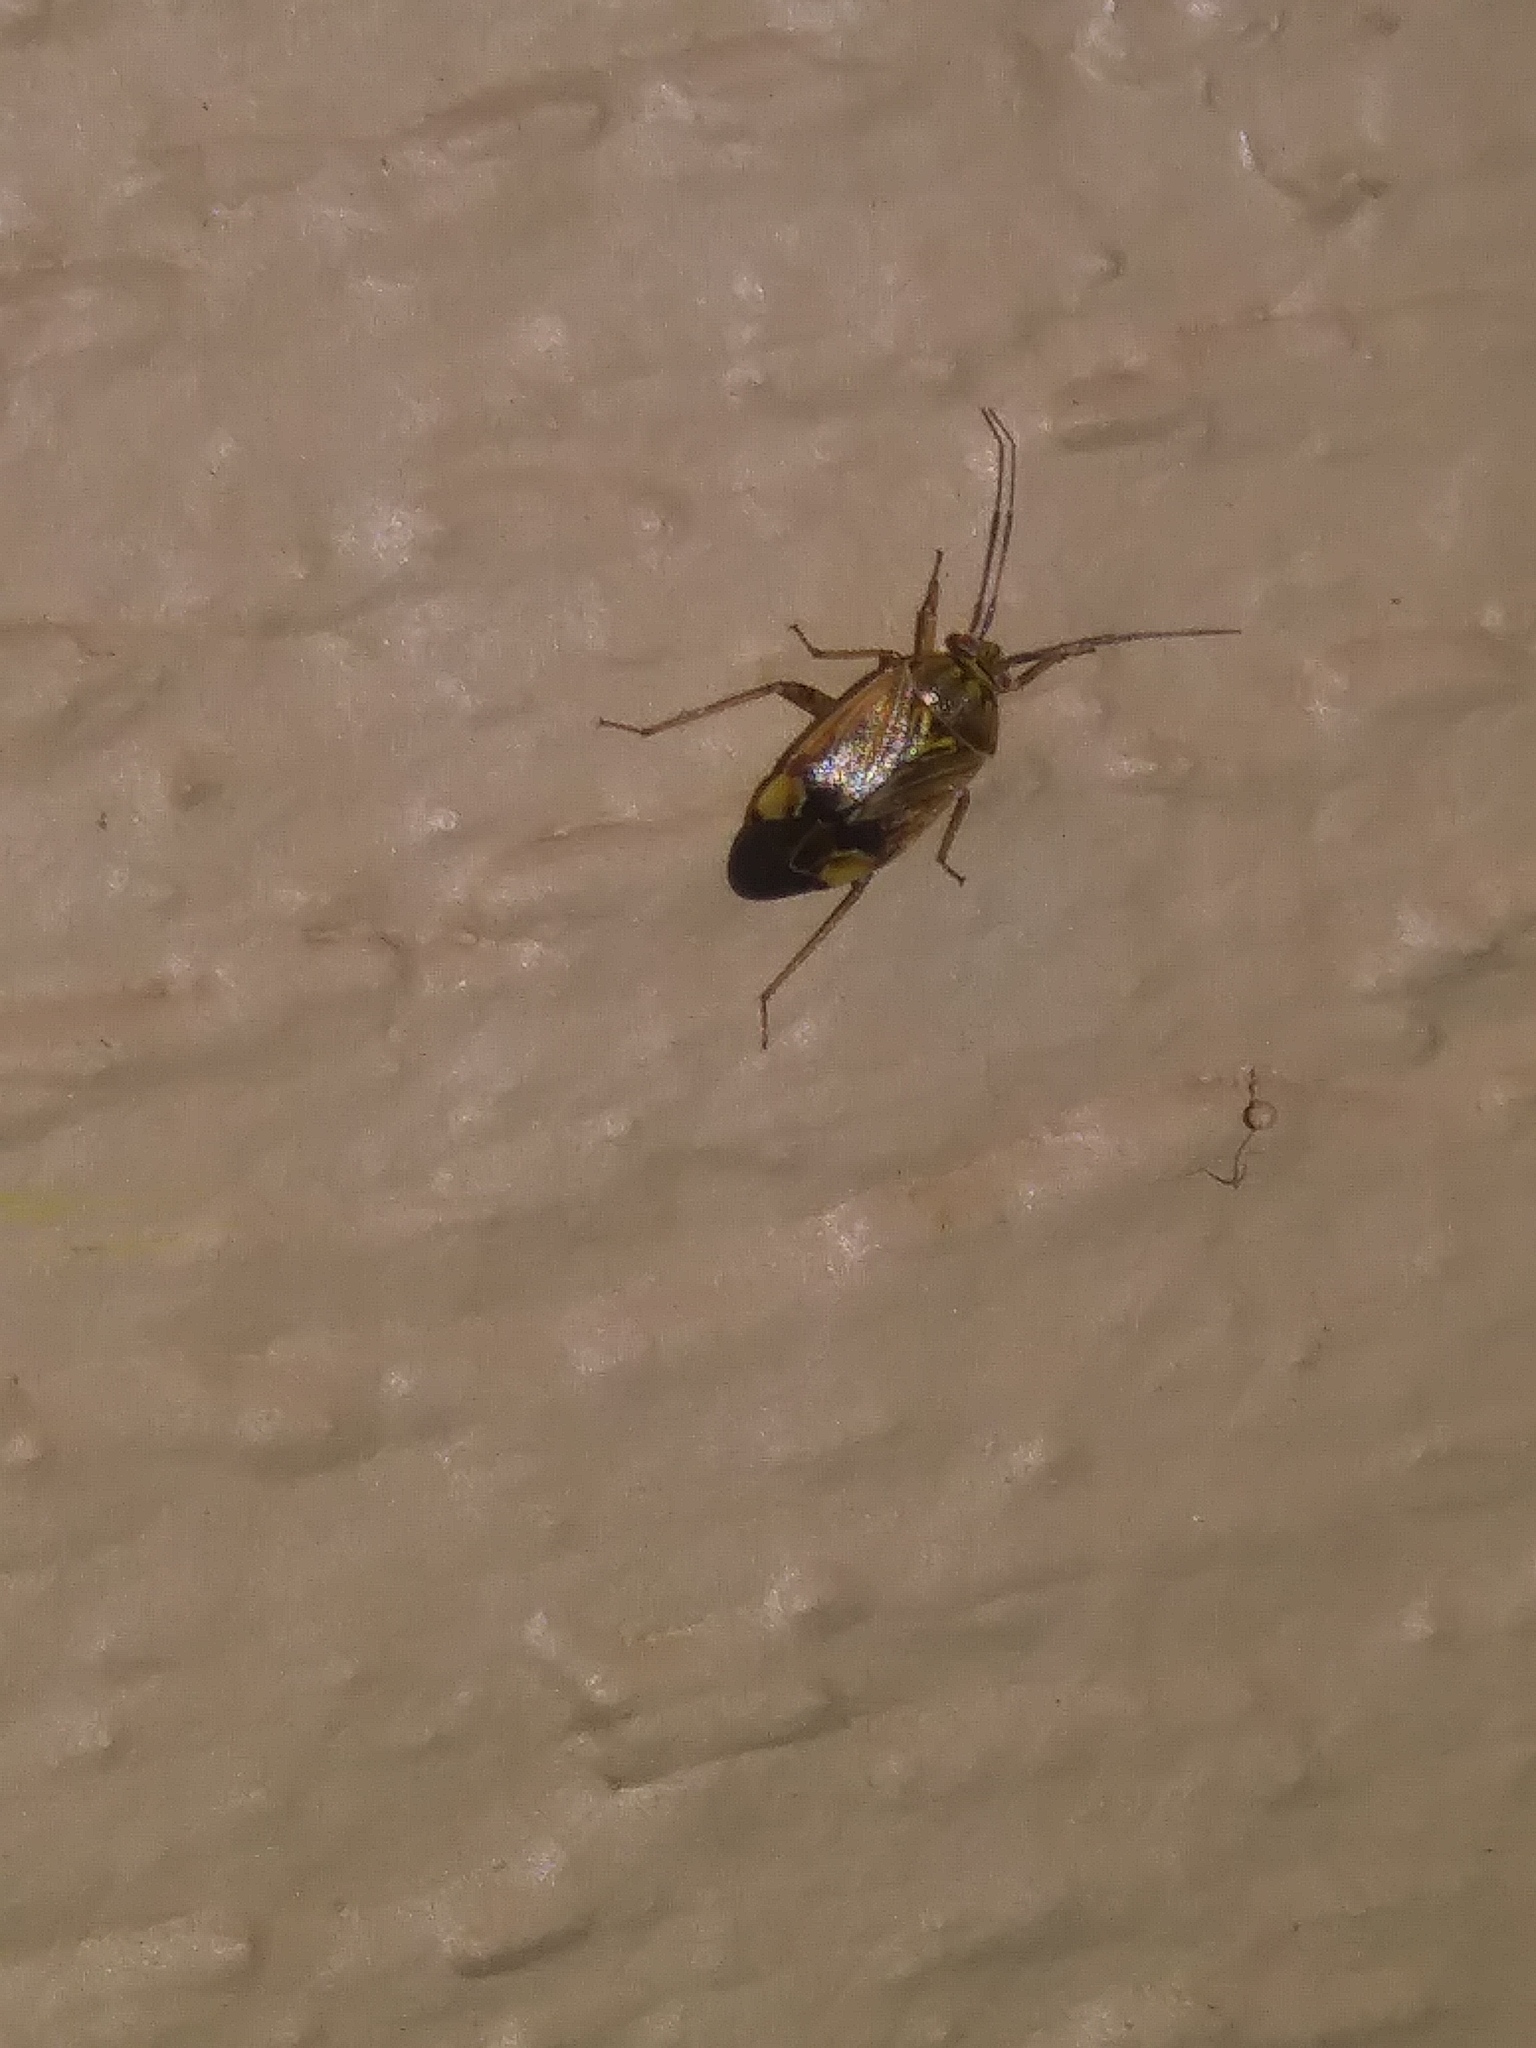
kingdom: Animalia
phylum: Arthropoda
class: Insecta
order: Hemiptera
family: Miridae
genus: Lygus
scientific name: Lygus lineolaris
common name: North american tarnished plant bug
